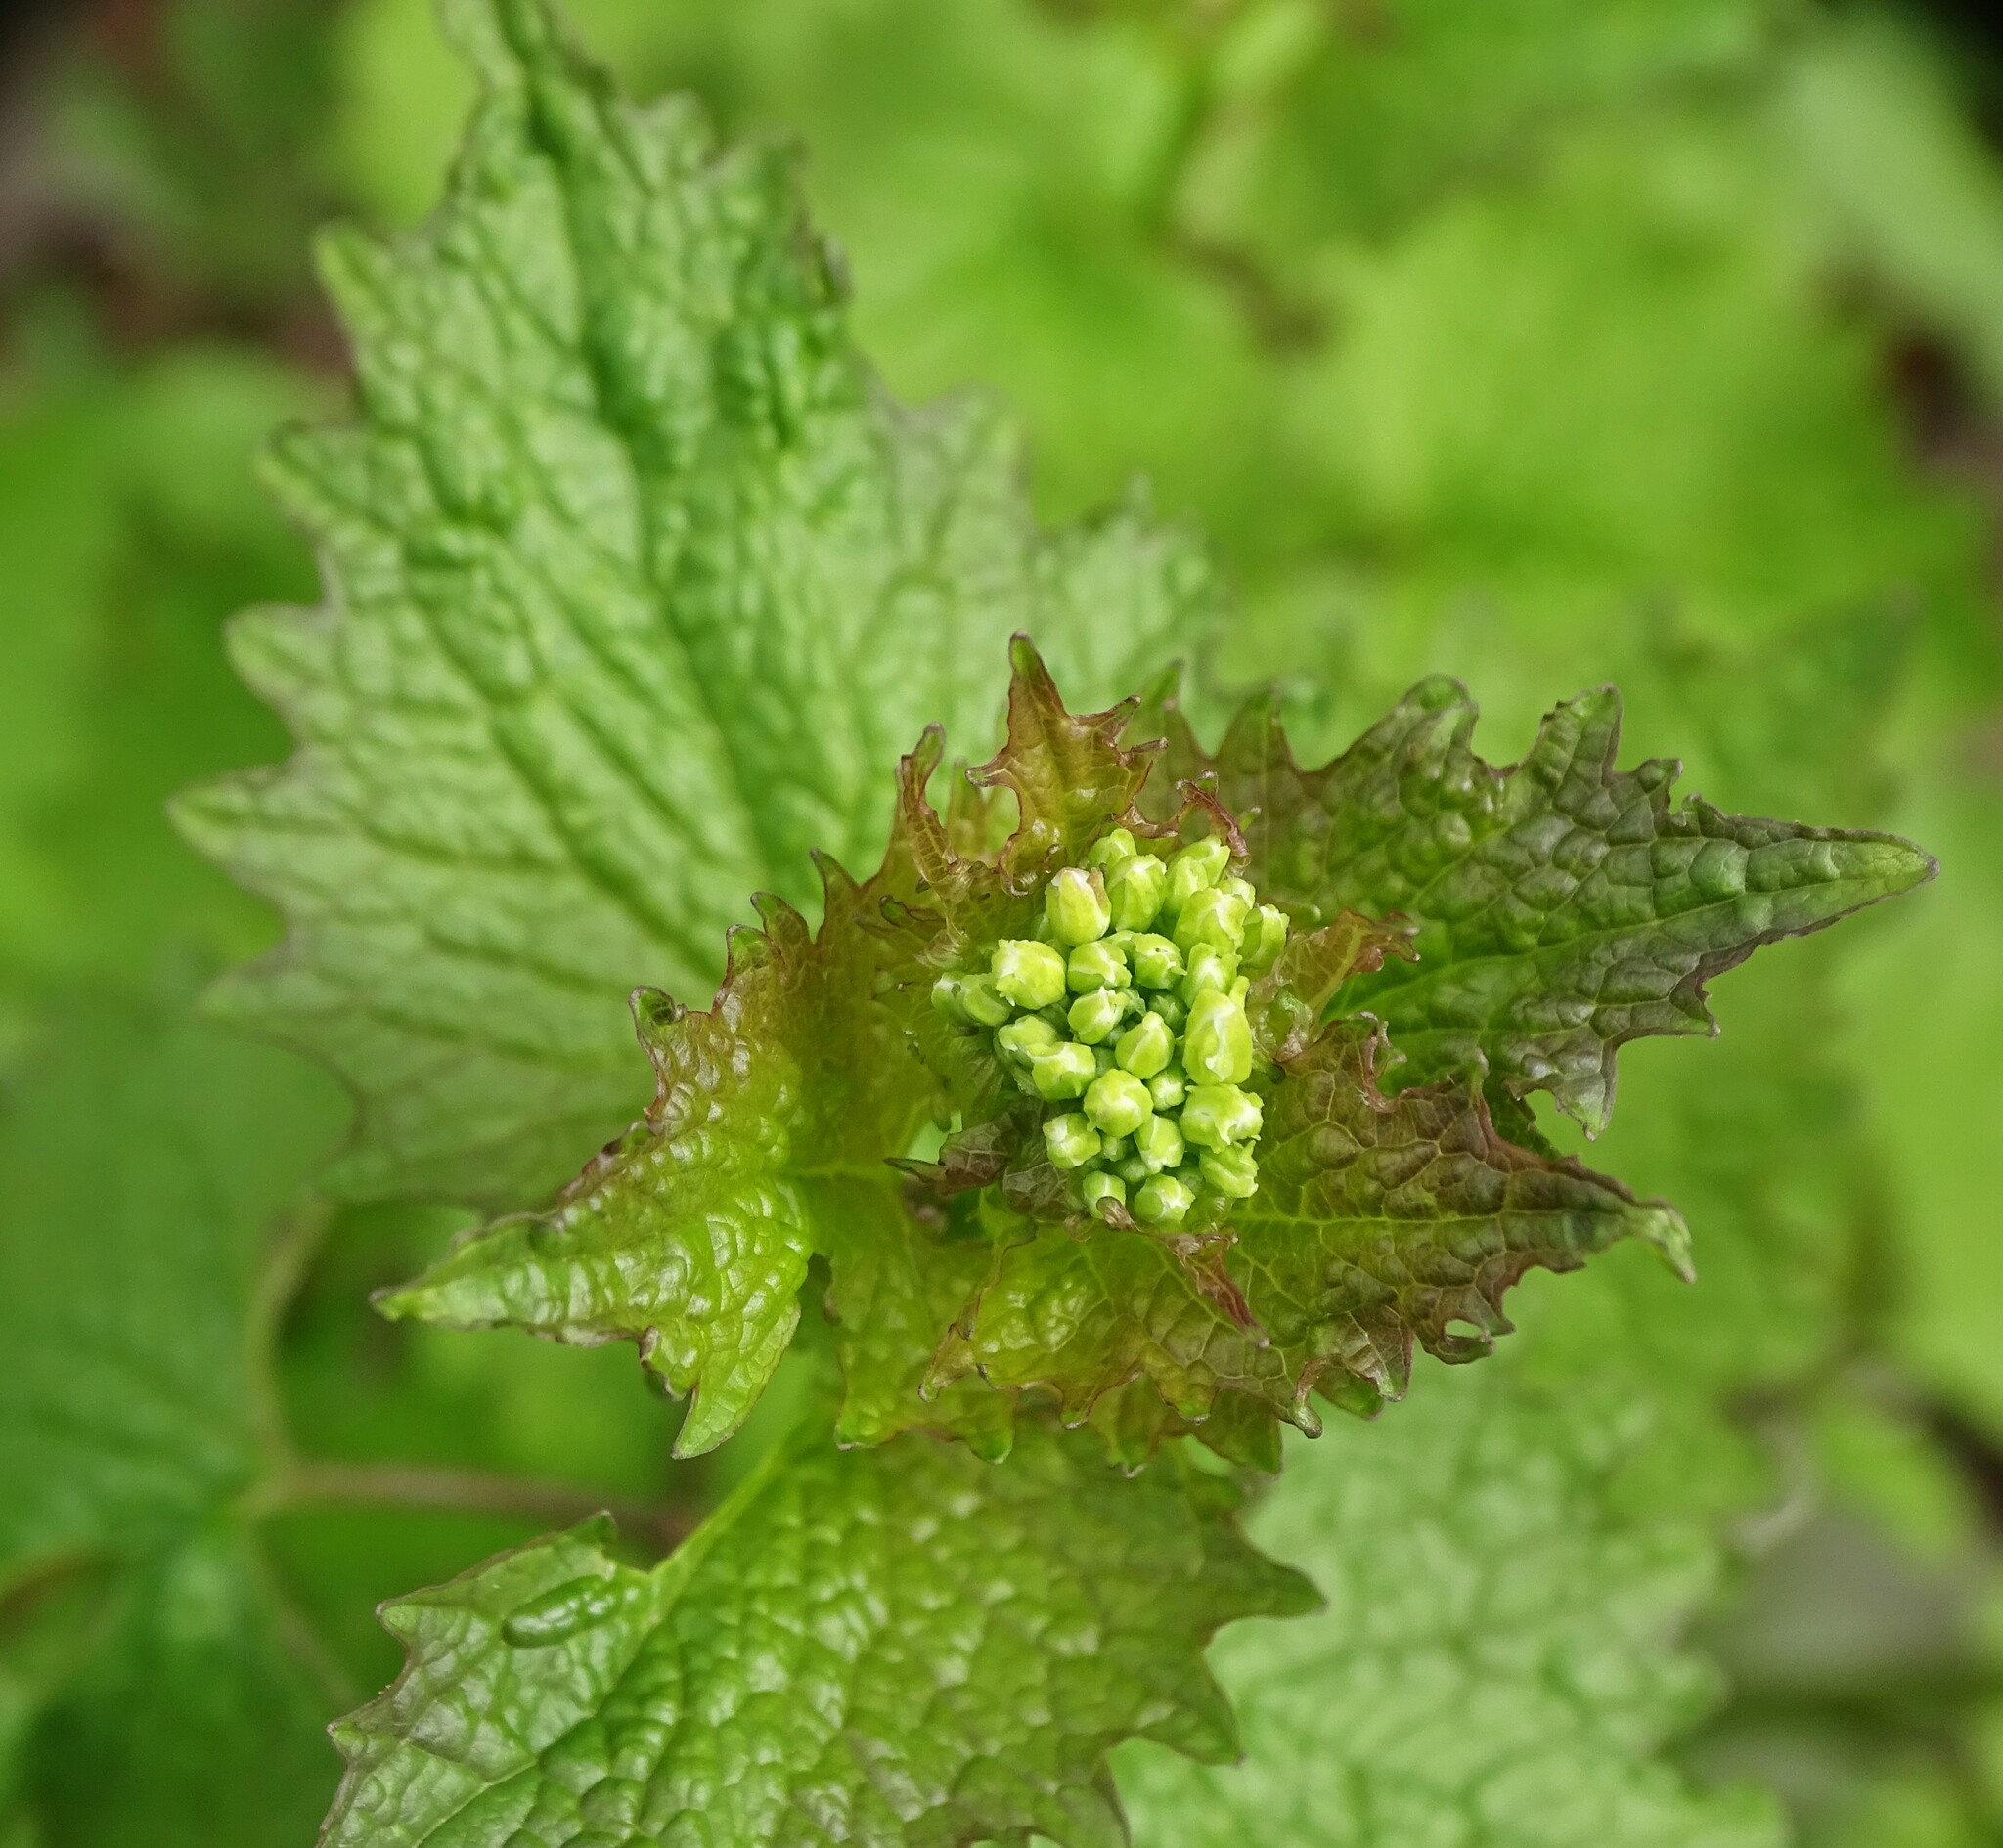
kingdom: Plantae
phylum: Tracheophyta
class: Magnoliopsida
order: Brassicales
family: Brassicaceae
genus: Alliaria
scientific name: Alliaria petiolata
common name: Garlic mustard
